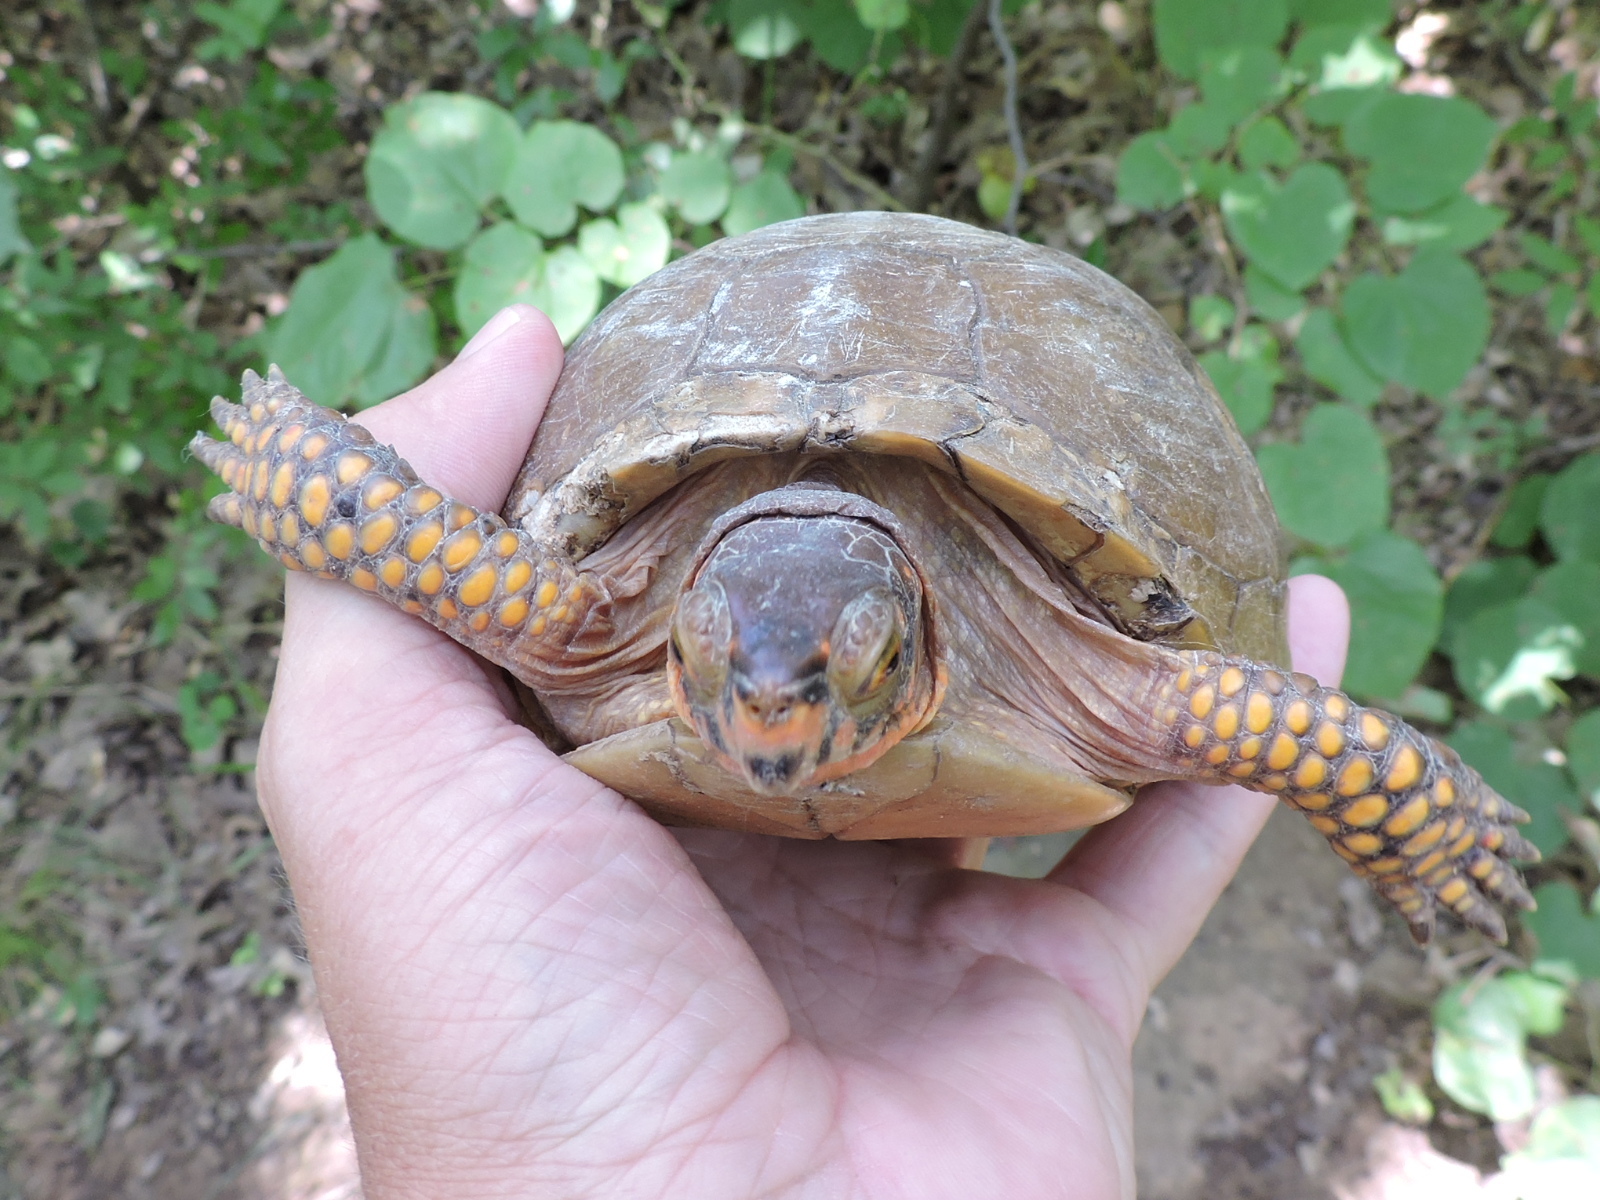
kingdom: Animalia
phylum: Chordata
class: Testudines
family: Emydidae
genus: Terrapene
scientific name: Terrapene carolina
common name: Common box turtle
